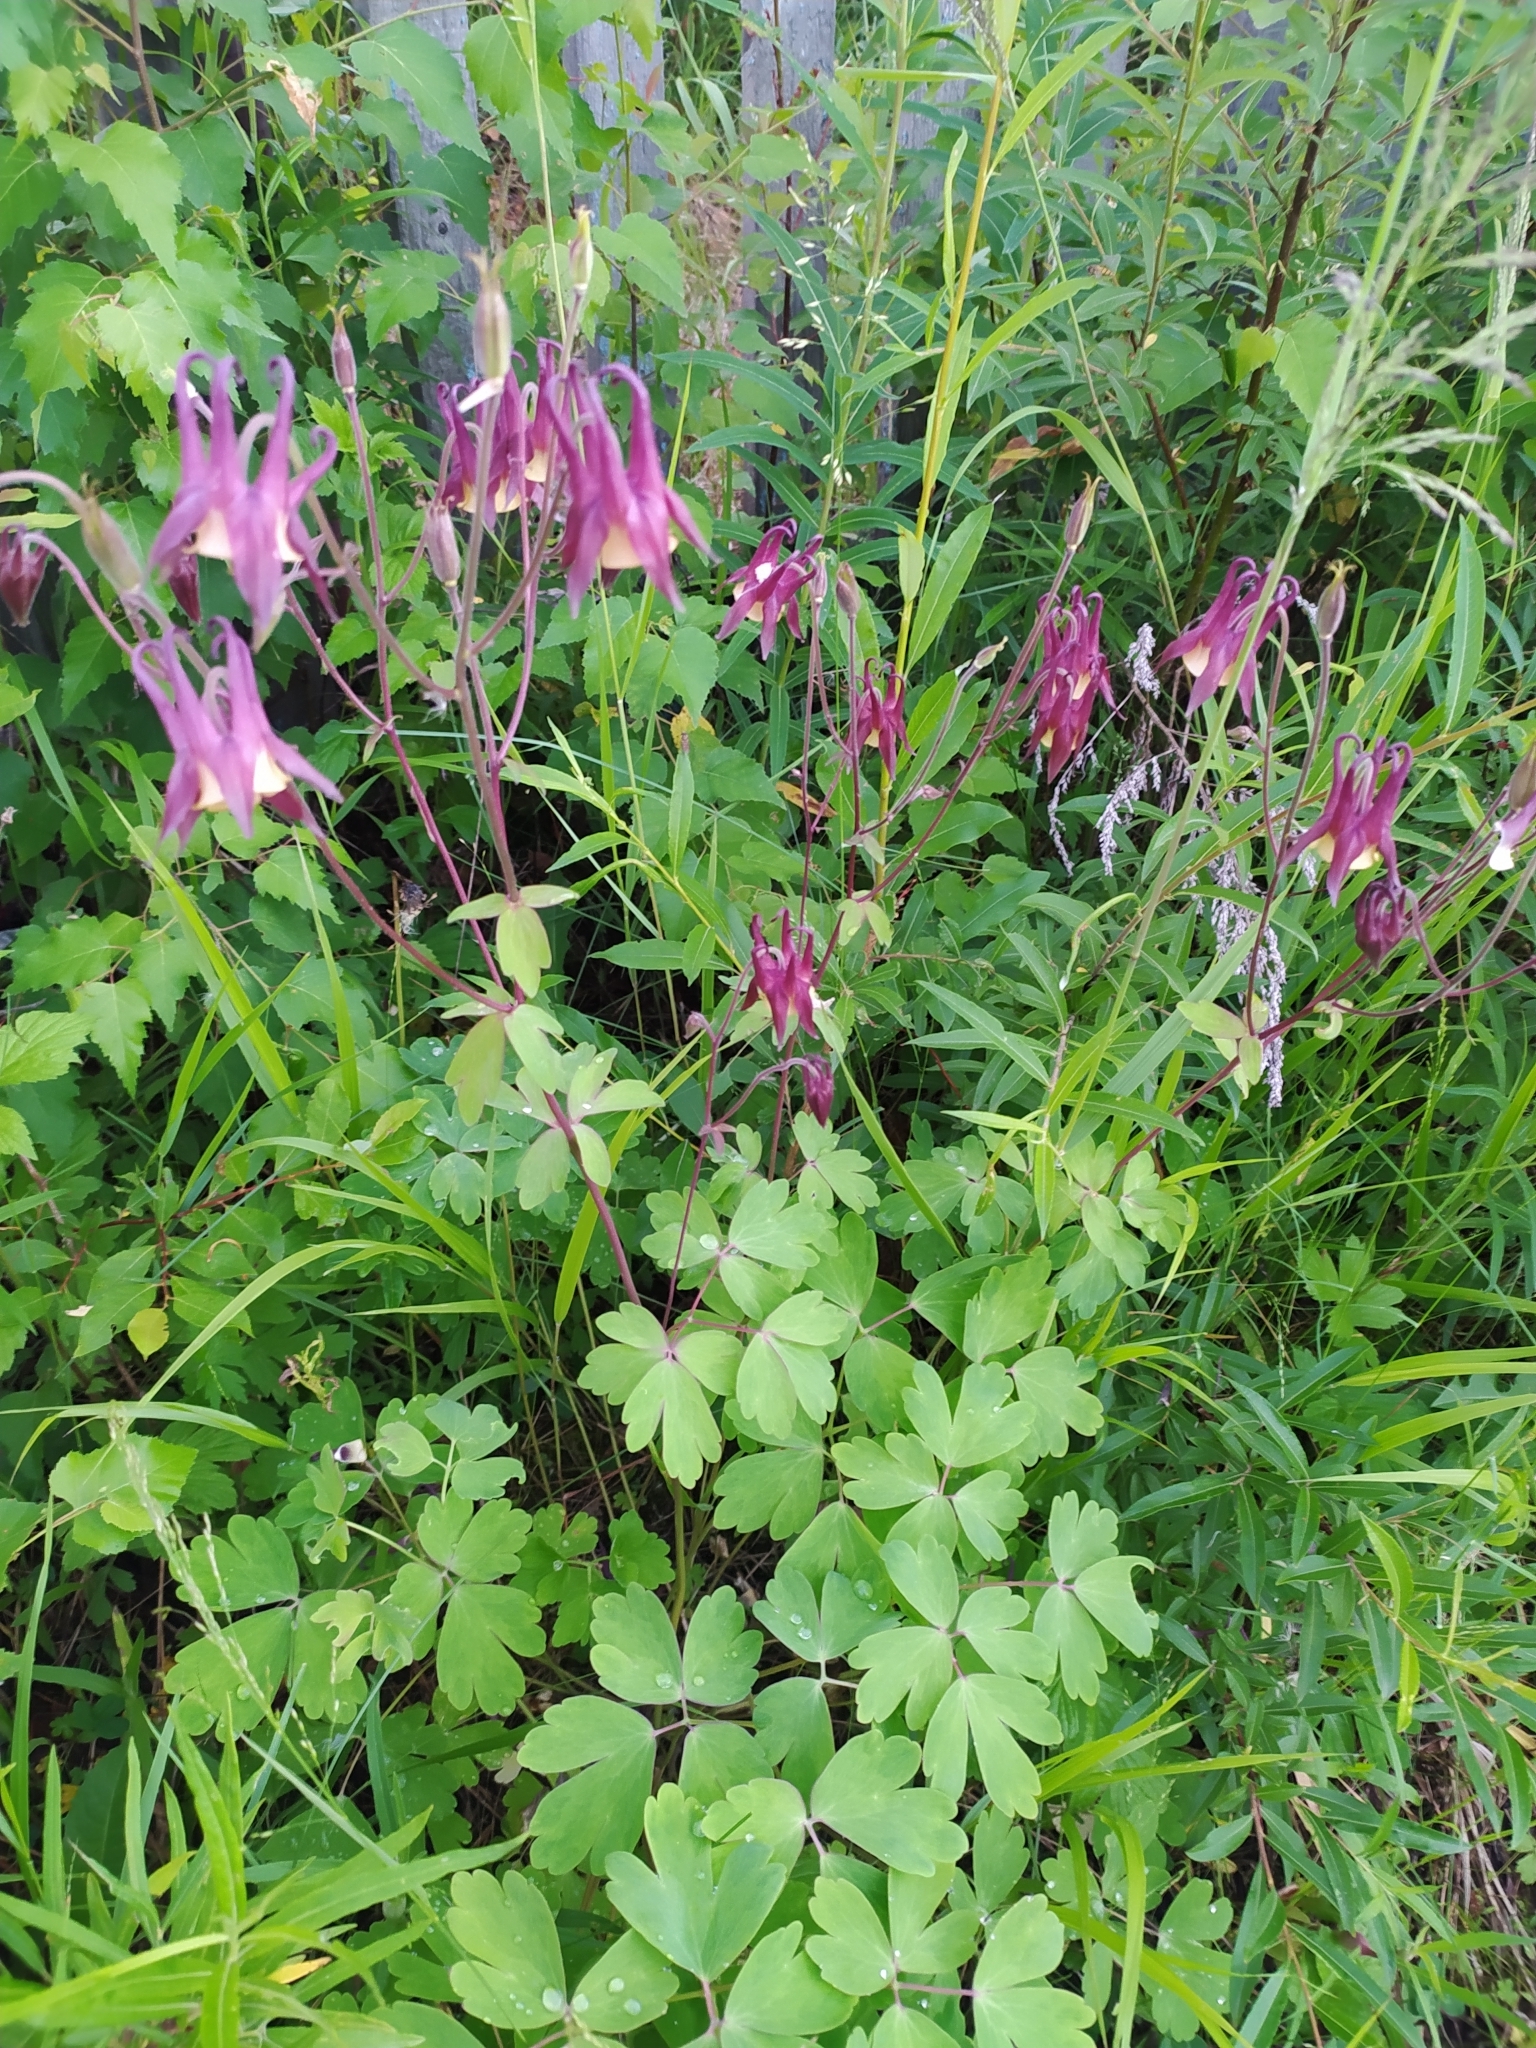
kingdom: Plantae
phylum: Tracheophyta
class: Magnoliopsida
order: Ranunculales
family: Ranunculaceae
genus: Aquilegia
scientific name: Aquilegia oxysepala
